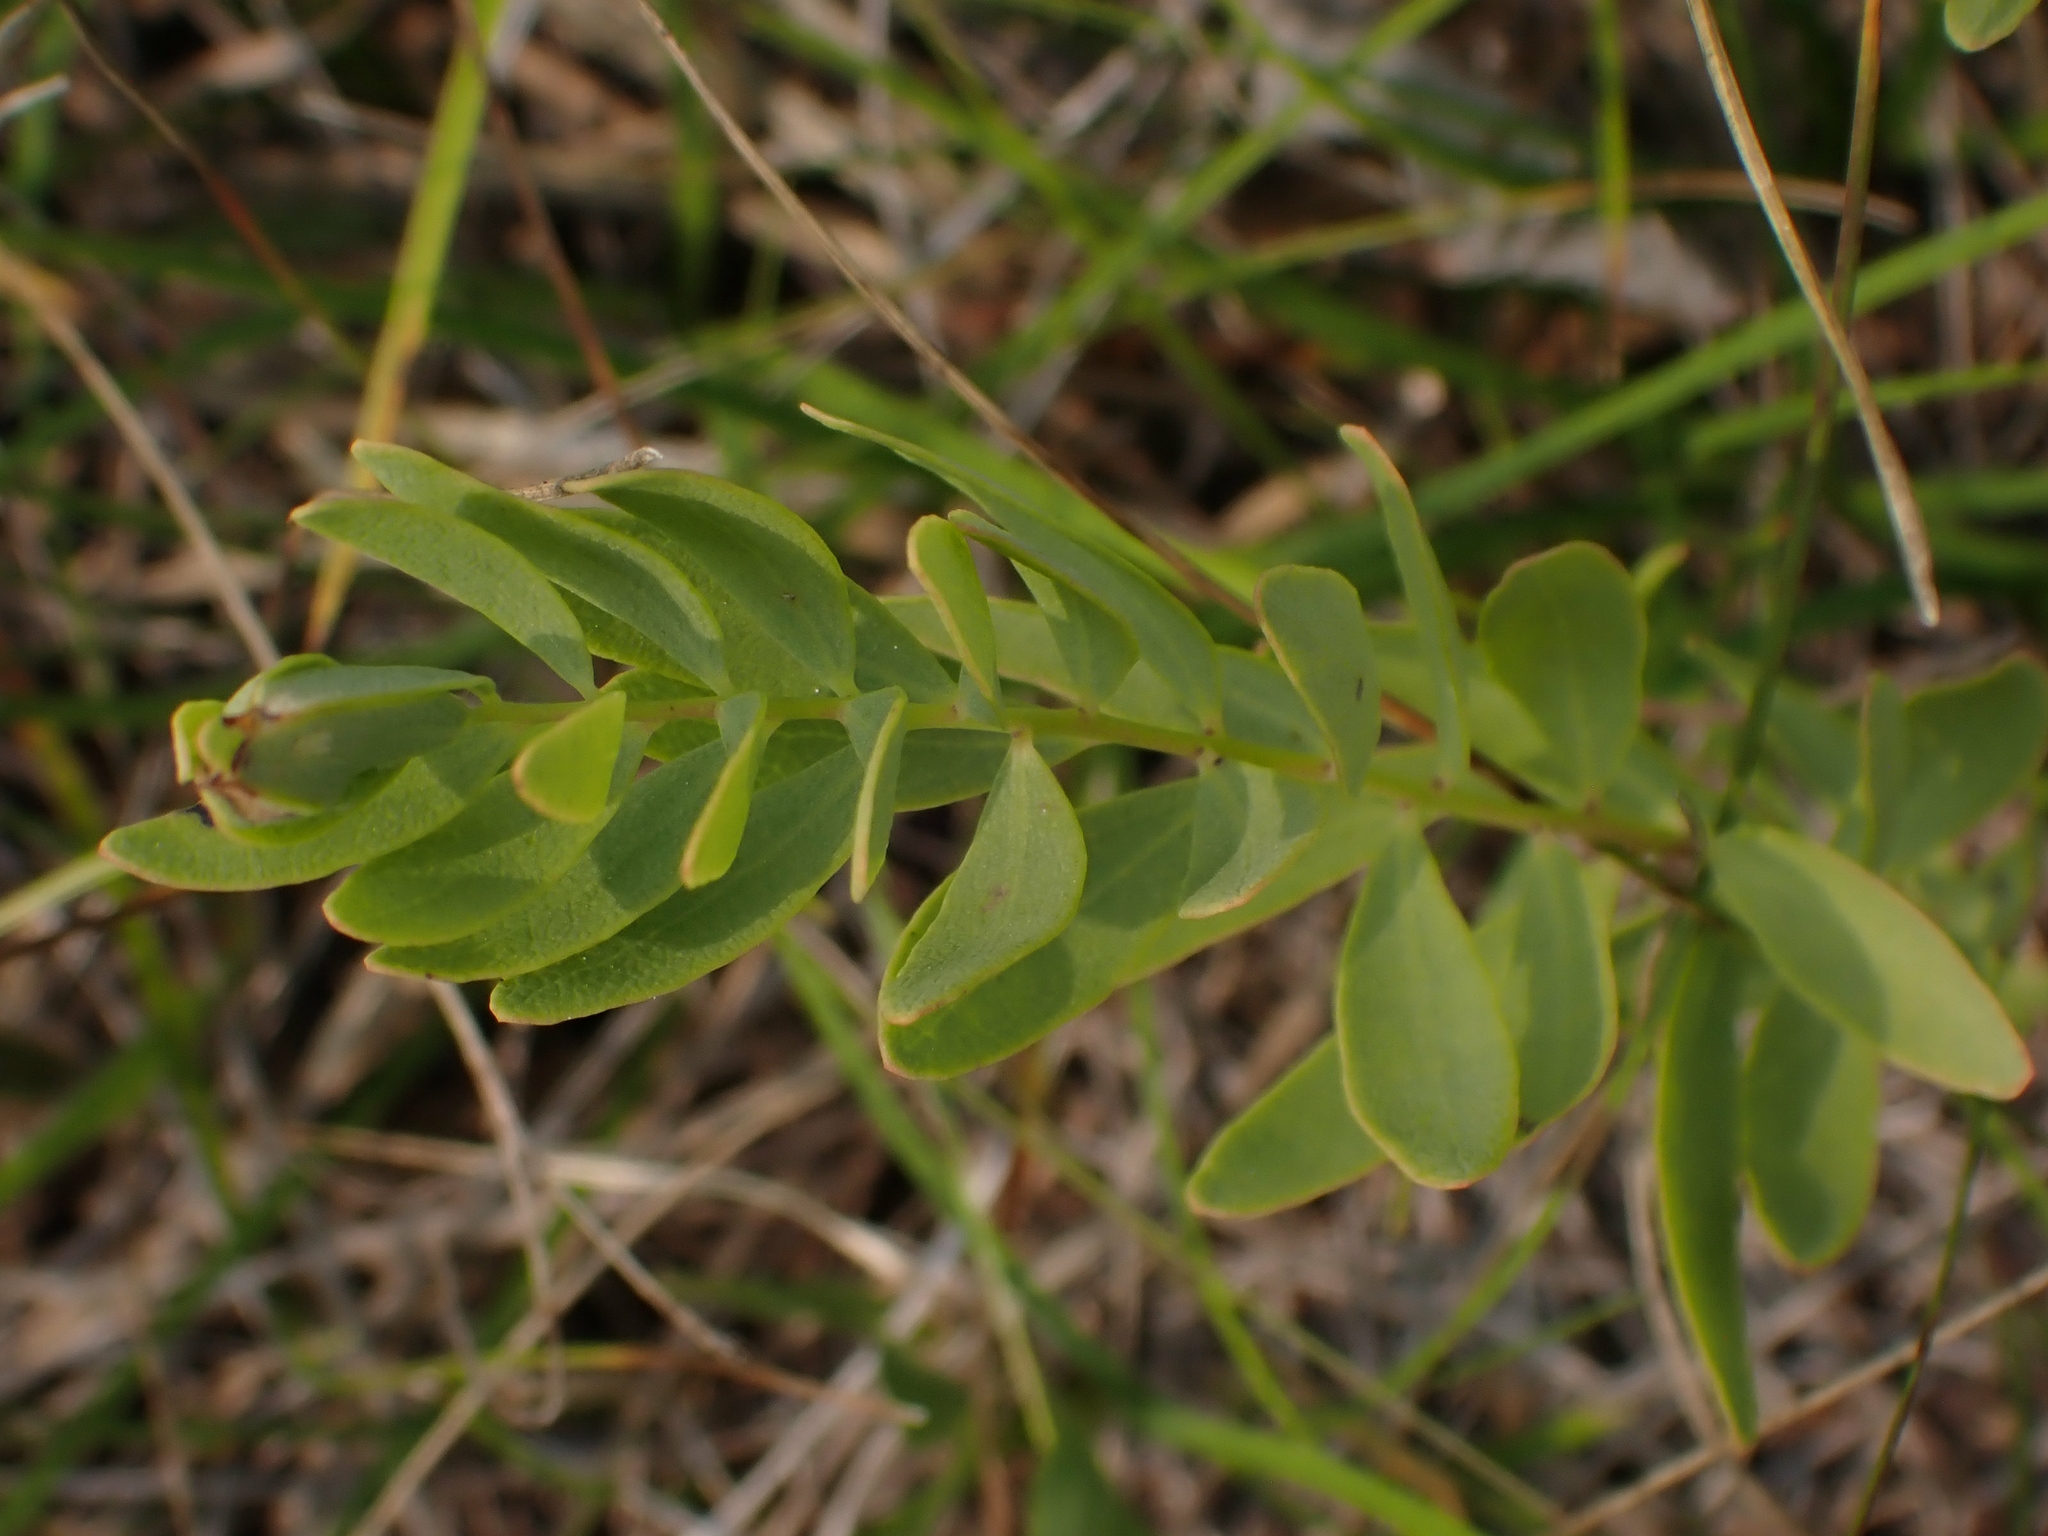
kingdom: Plantae
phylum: Tracheophyta
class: Magnoliopsida
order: Santalales
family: Comandraceae
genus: Comandra
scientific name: Comandra umbellata
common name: Bastard toadflax
